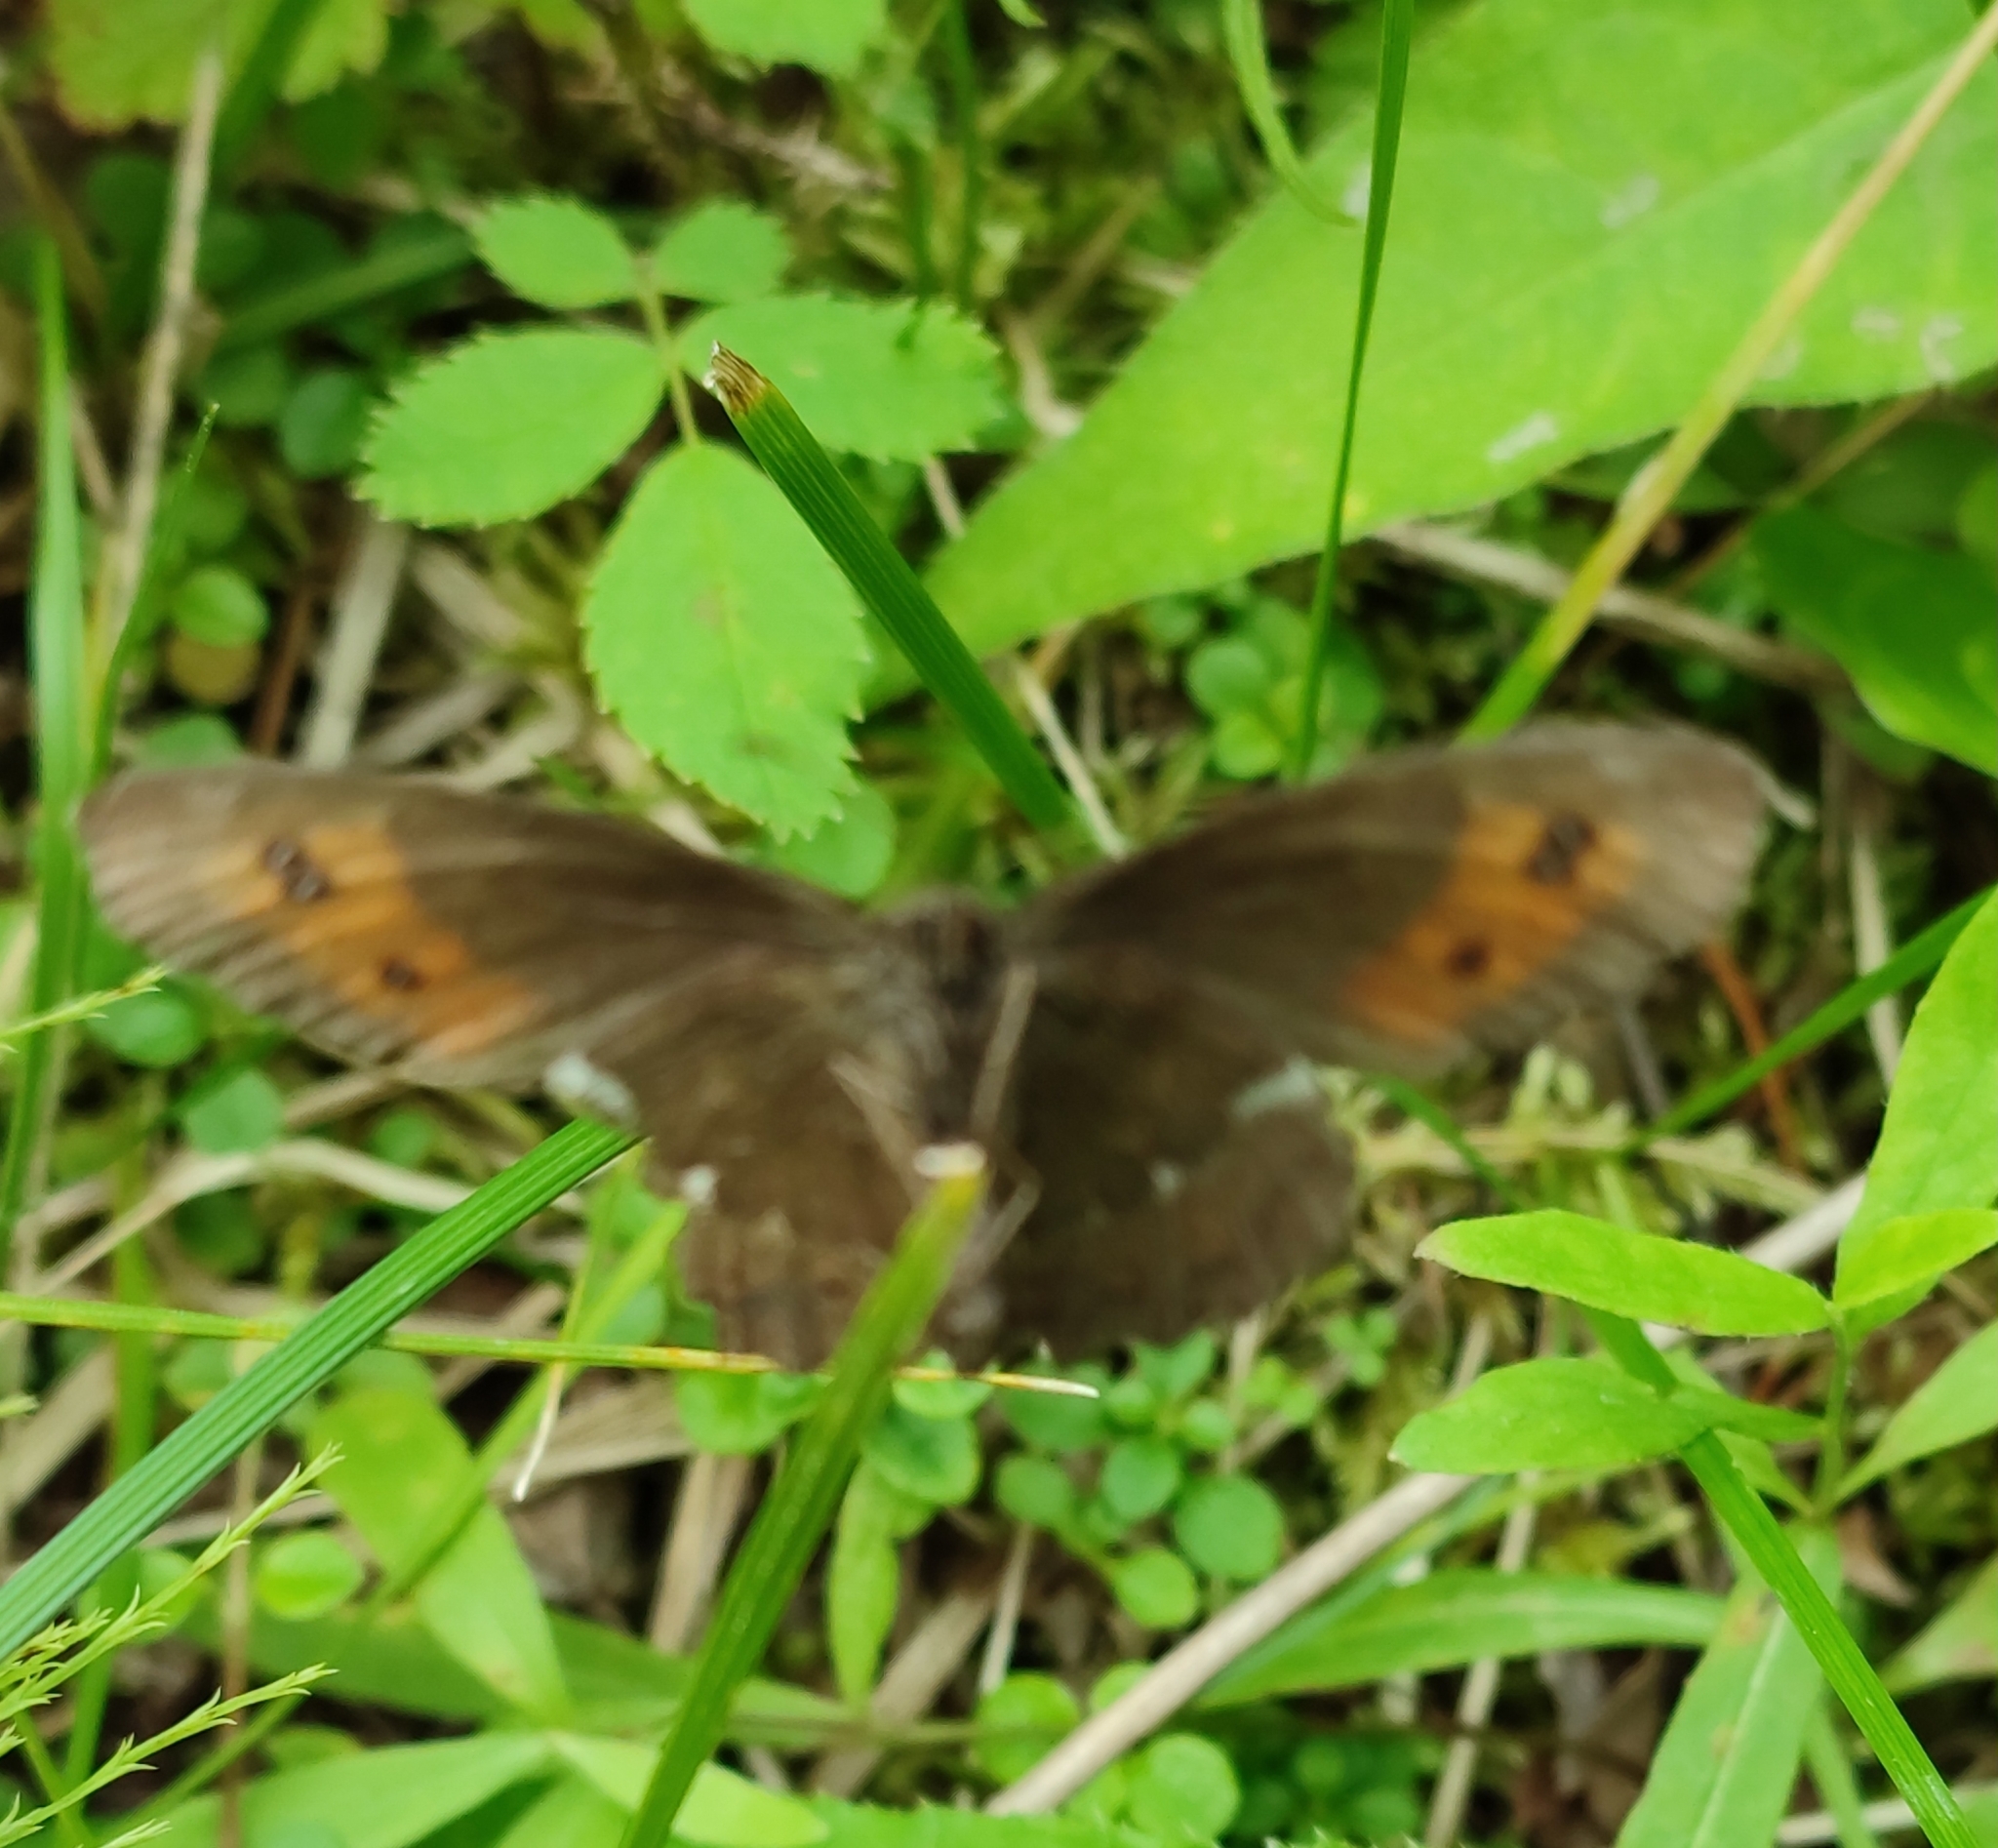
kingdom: Animalia
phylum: Arthropoda
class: Insecta
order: Lepidoptera
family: Nymphalidae
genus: Erebia
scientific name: Erebia ligea
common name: Arran brown
